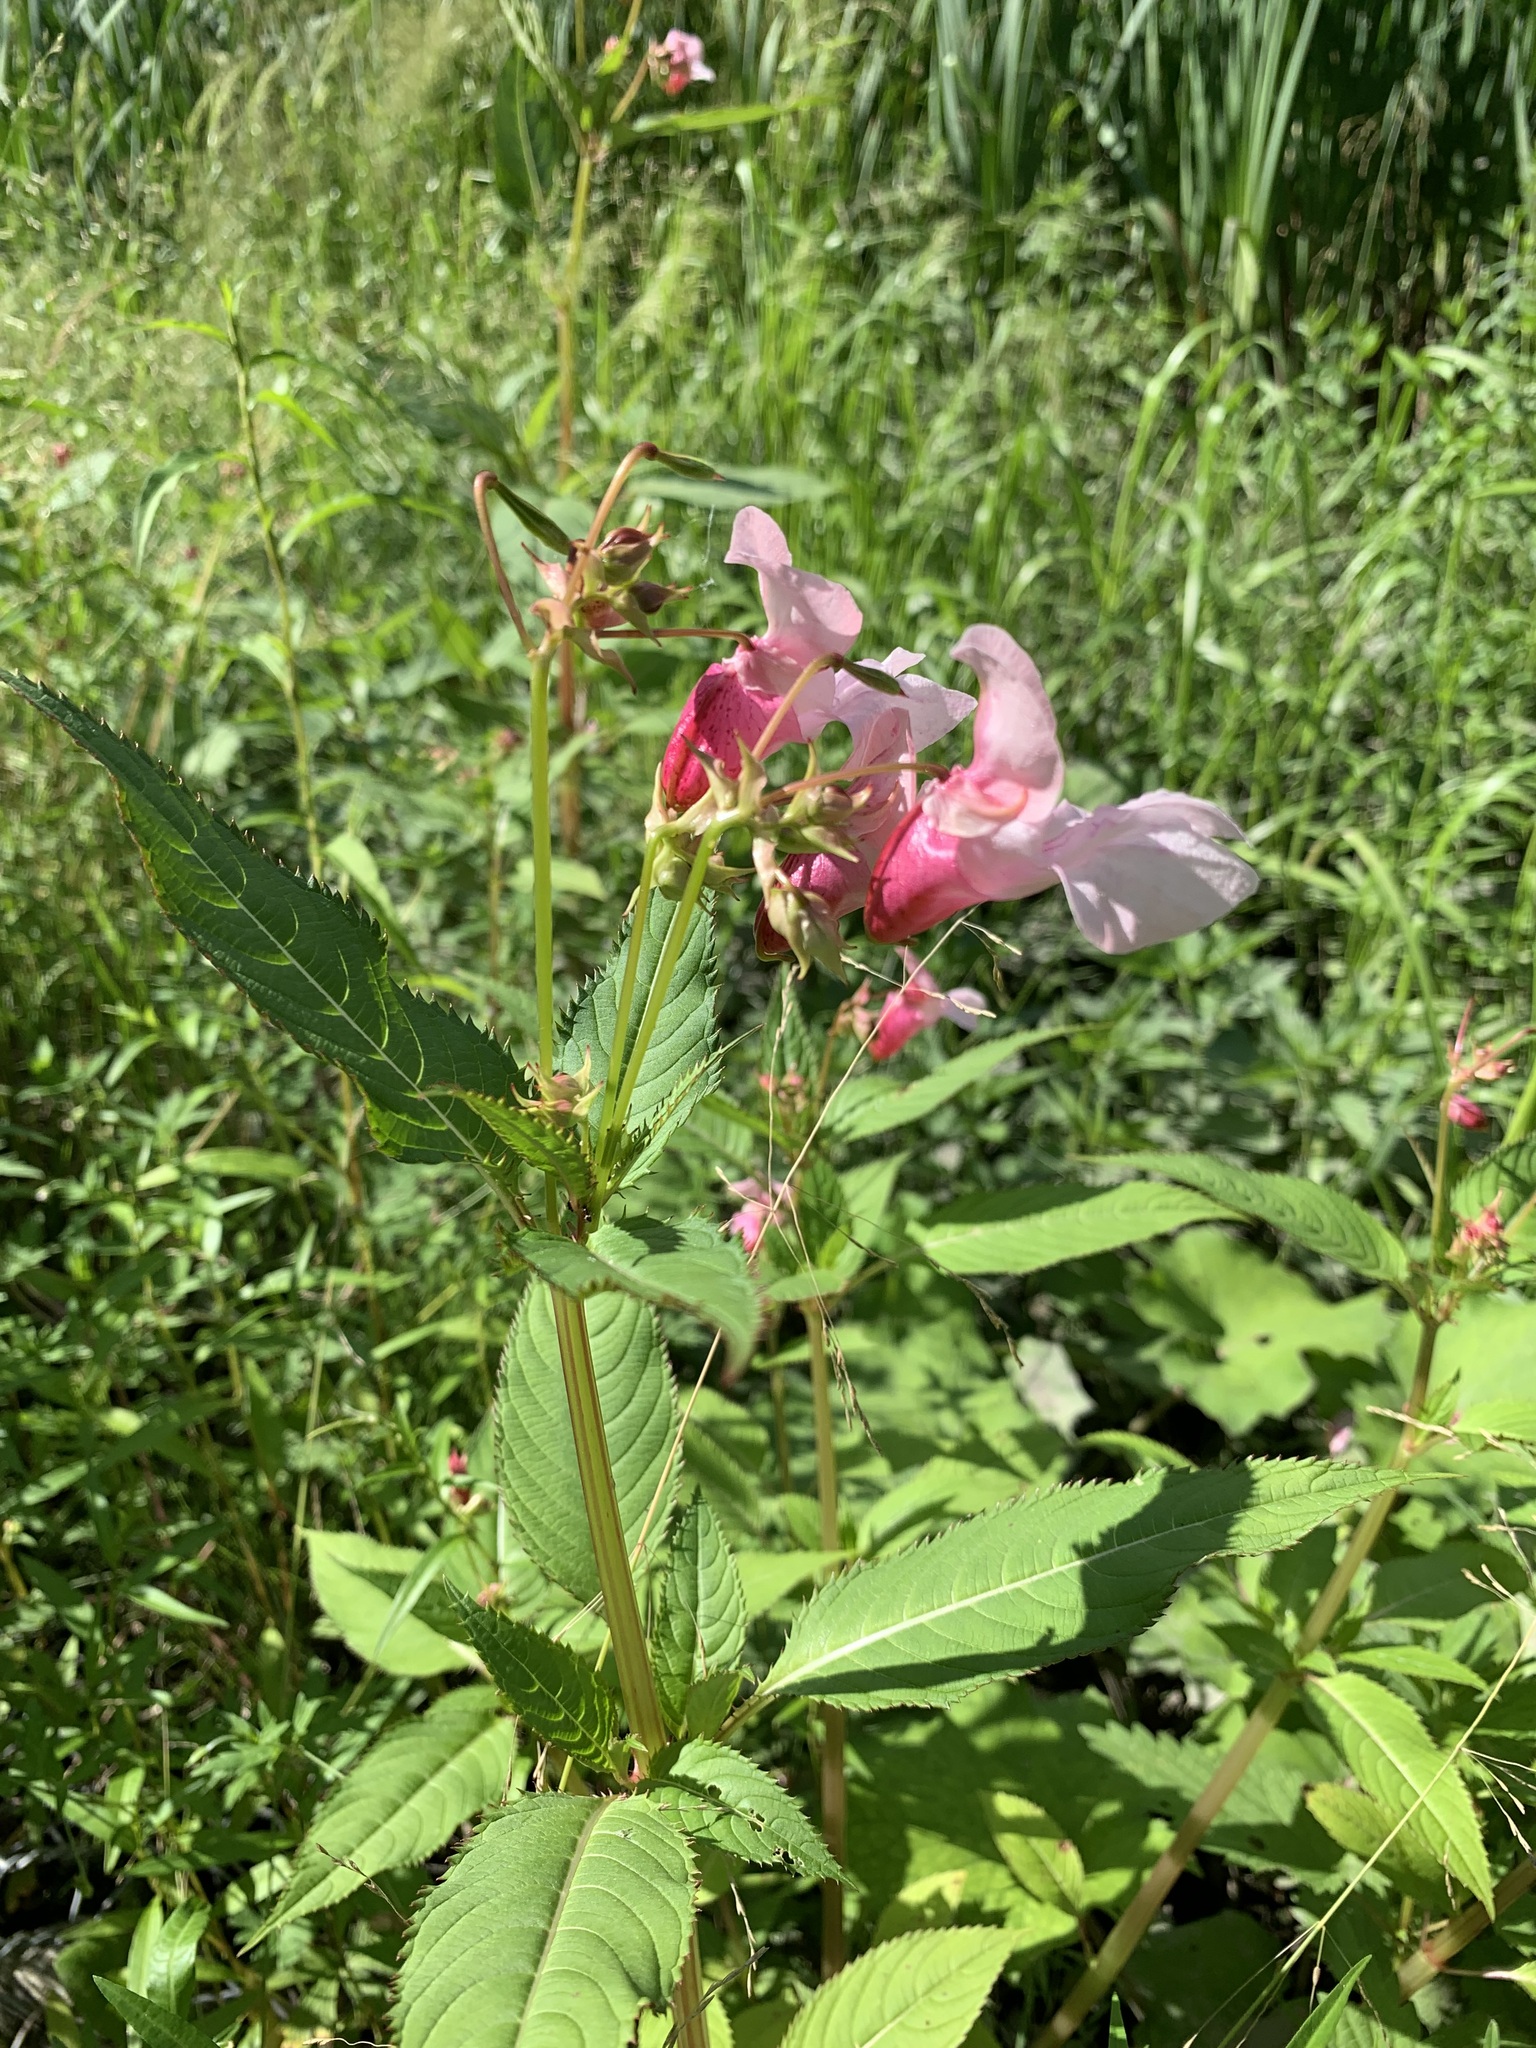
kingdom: Plantae
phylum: Tracheophyta
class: Magnoliopsida
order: Ericales
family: Balsaminaceae
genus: Impatiens
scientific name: Impatiens glandulifera
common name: Himalayan balsam
